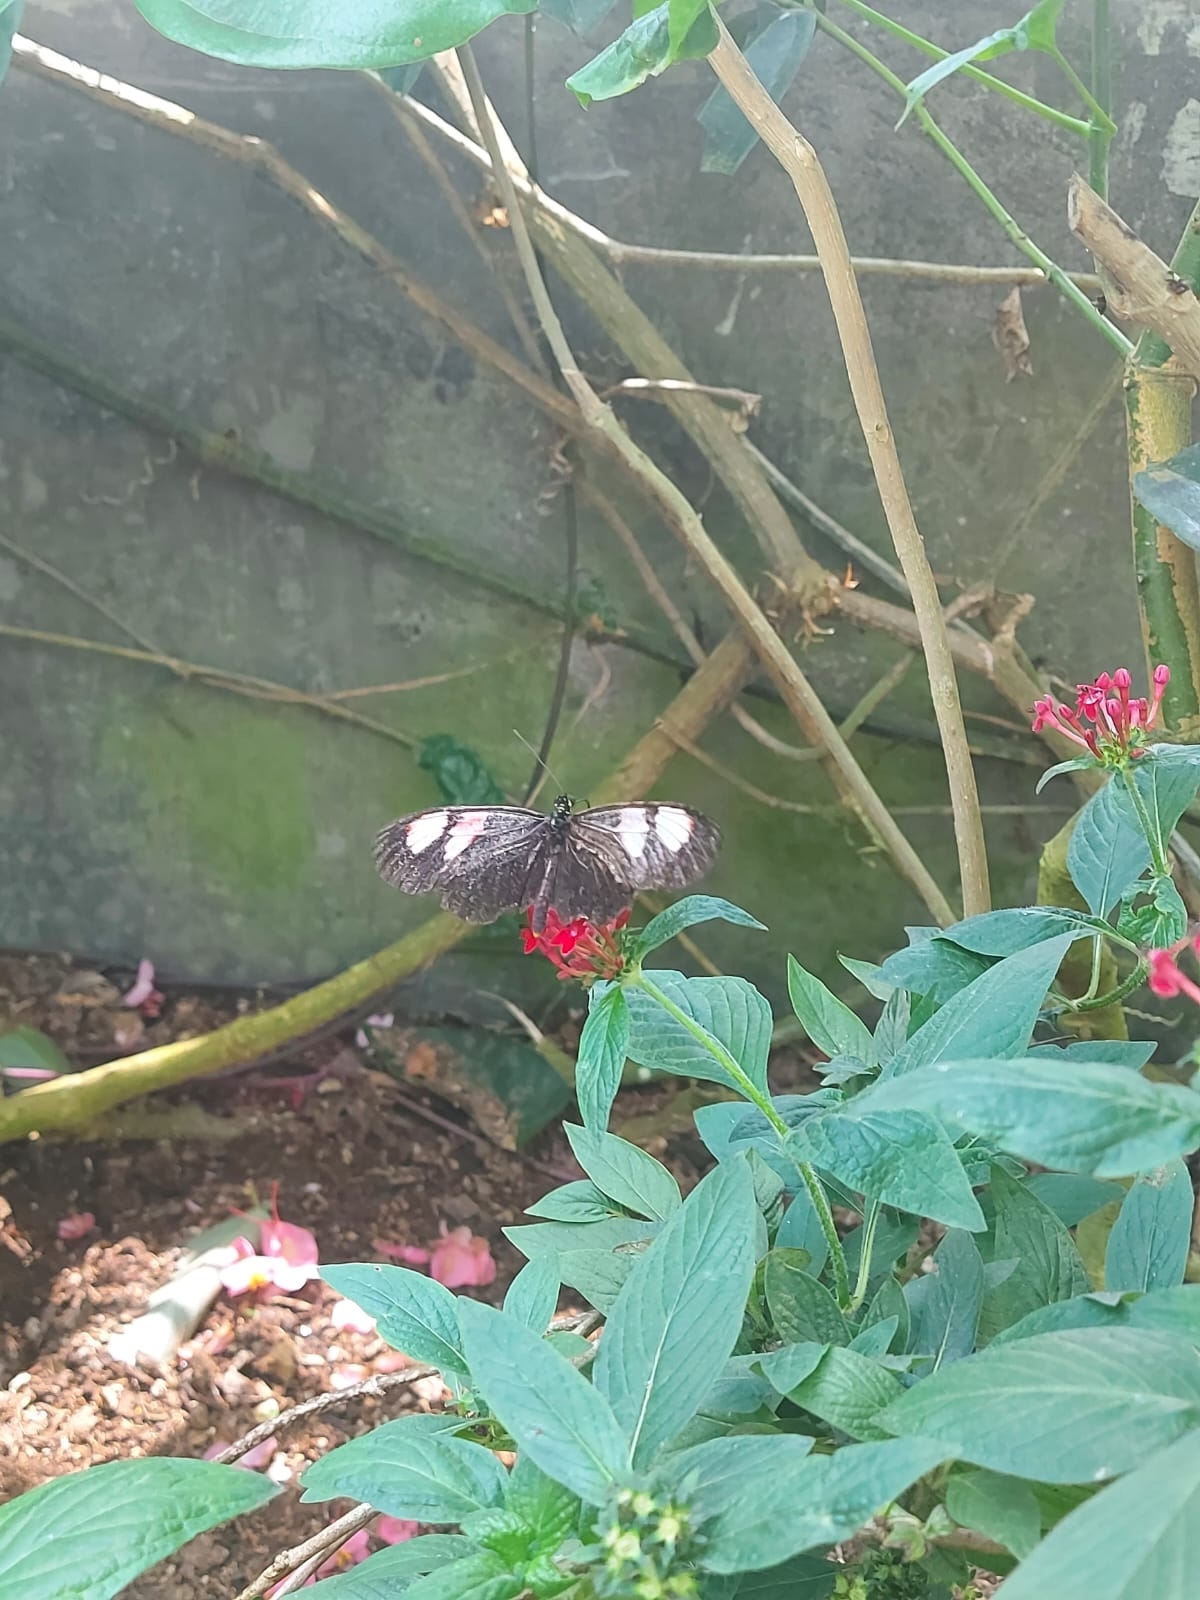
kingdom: Animalia
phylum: Arthropoda
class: Insecta
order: Lepidoptera
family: Nymphalidae
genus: Heliconius
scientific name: Heliconius melpomene
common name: Postman
